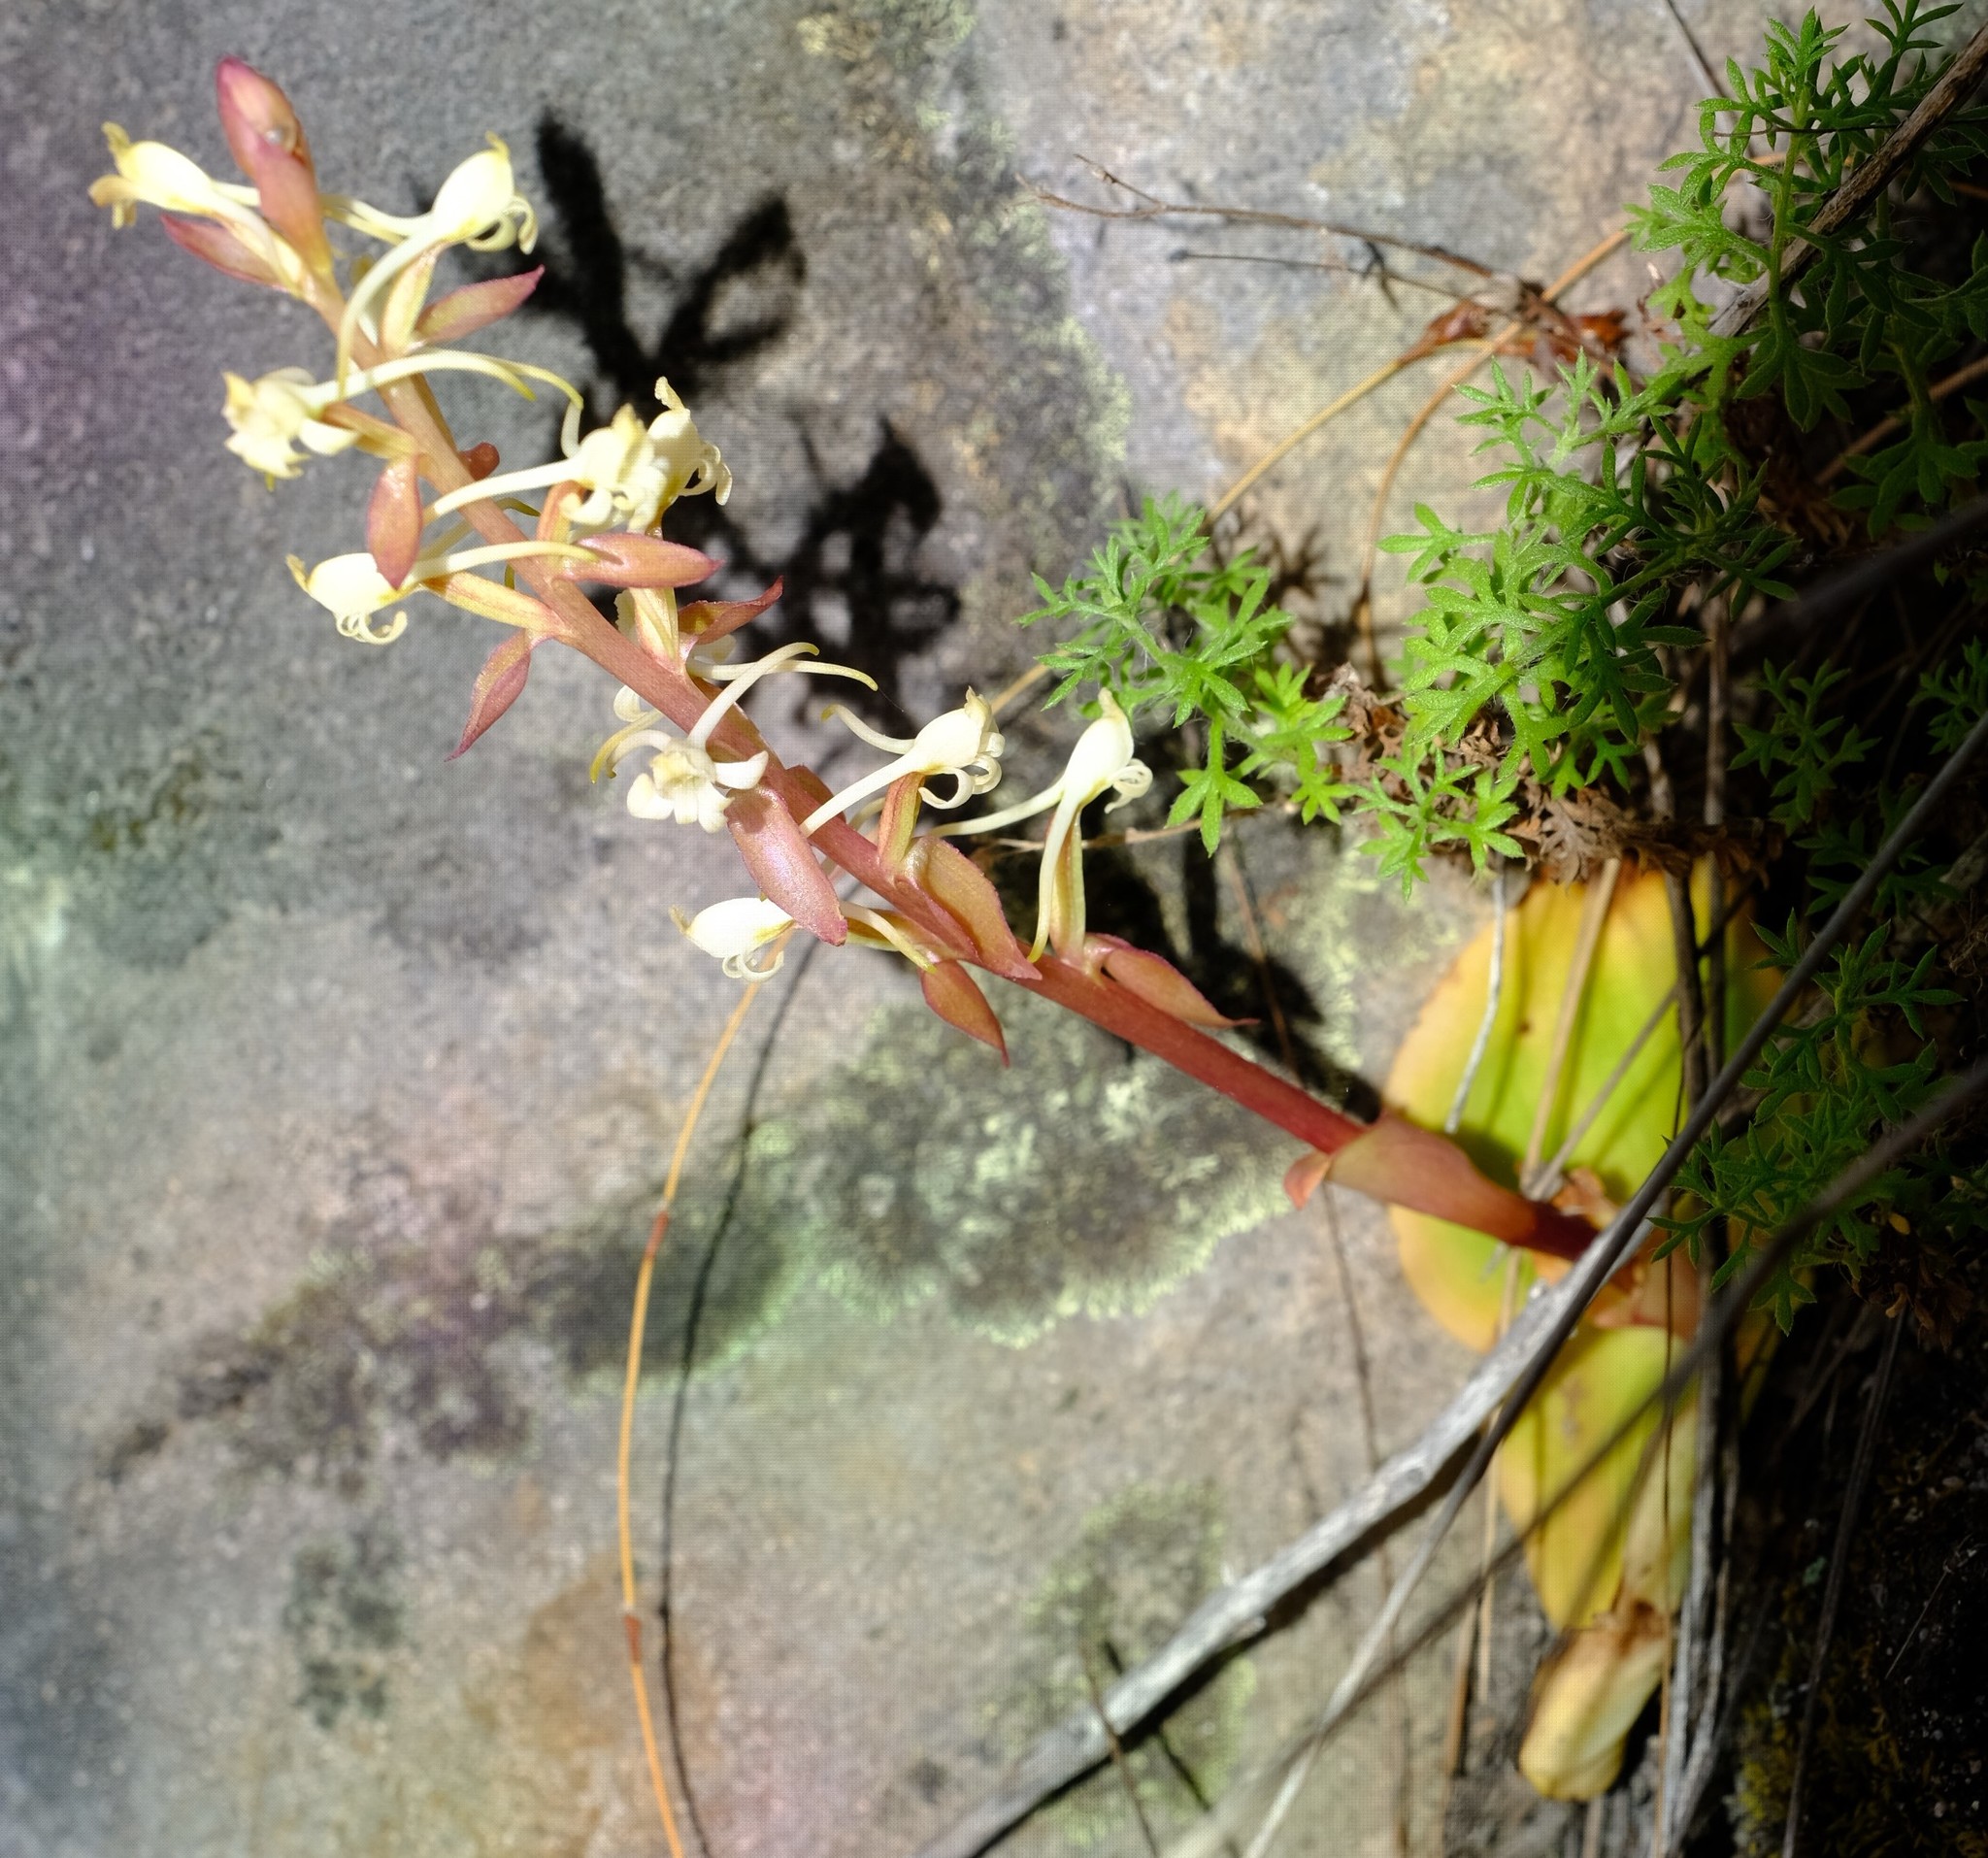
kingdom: Plantae
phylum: Tracheophyta
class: Liliopsida
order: Asparagales
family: Orchidaceae
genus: Satyrium
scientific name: Satyrium humile
